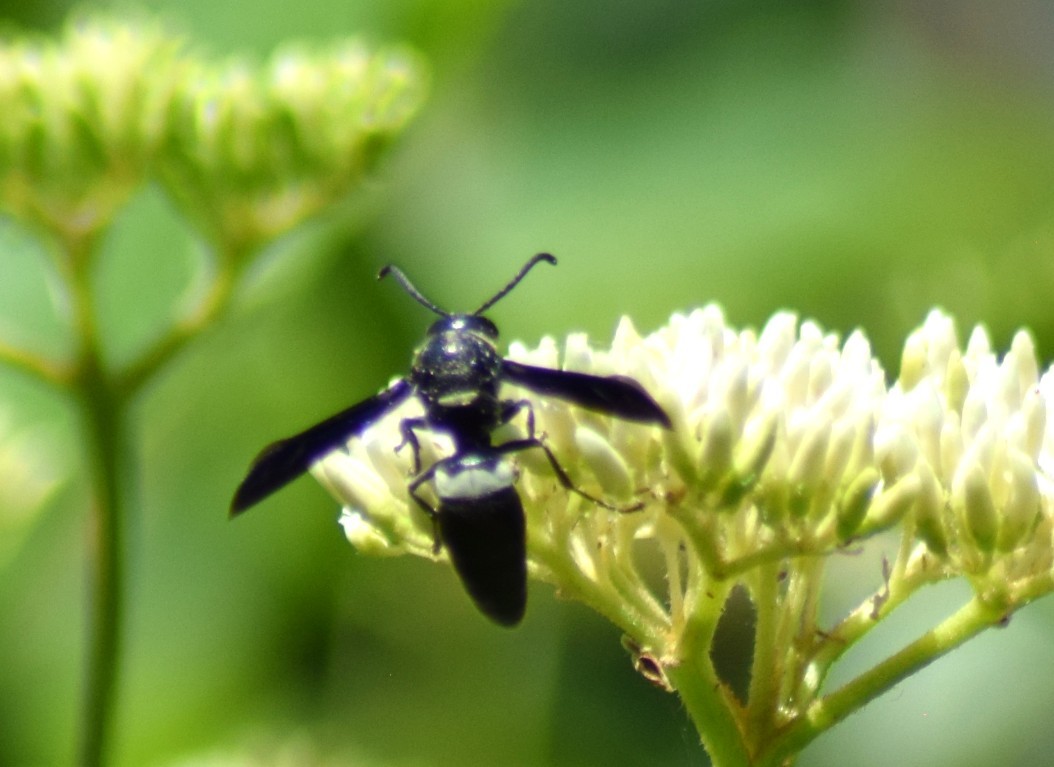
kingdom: Animalia
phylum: Arthropoda
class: Insecta
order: Hymenoptera
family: Eumenidae
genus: Monobia
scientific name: Monobia quadridens
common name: Four-toothed mason wasp
